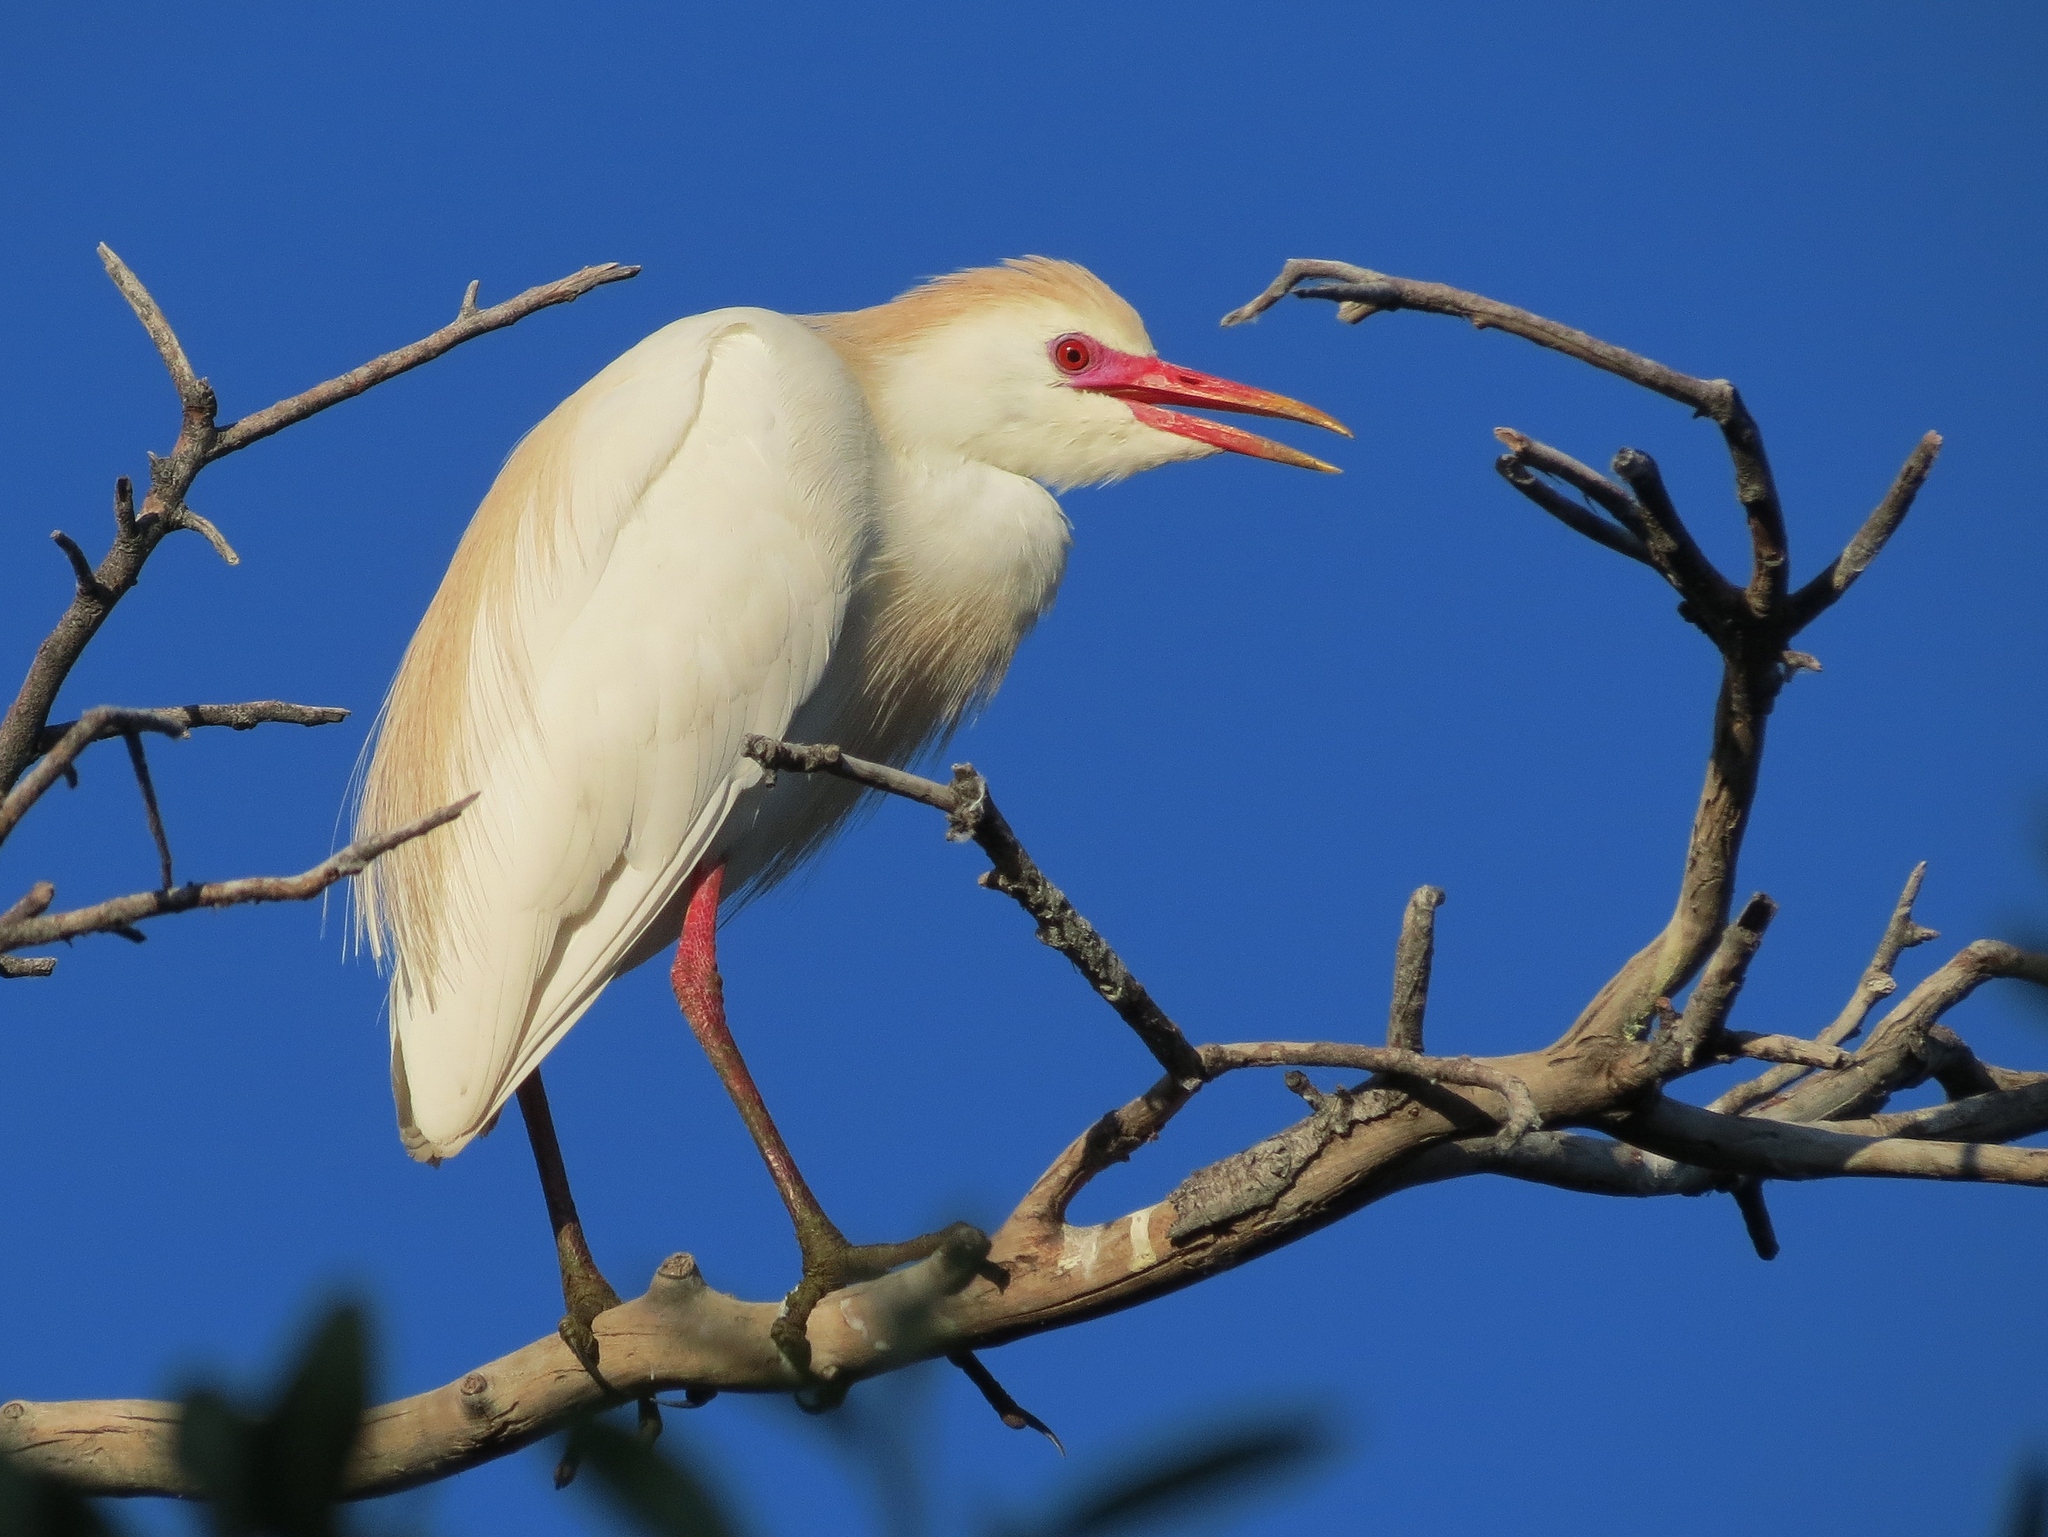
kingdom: Animalia
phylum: Chordata
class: Aves
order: Pelecaniformes
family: Ardeidae
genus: Bubulcus
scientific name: Bubulcus ibis
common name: Cattle egret
